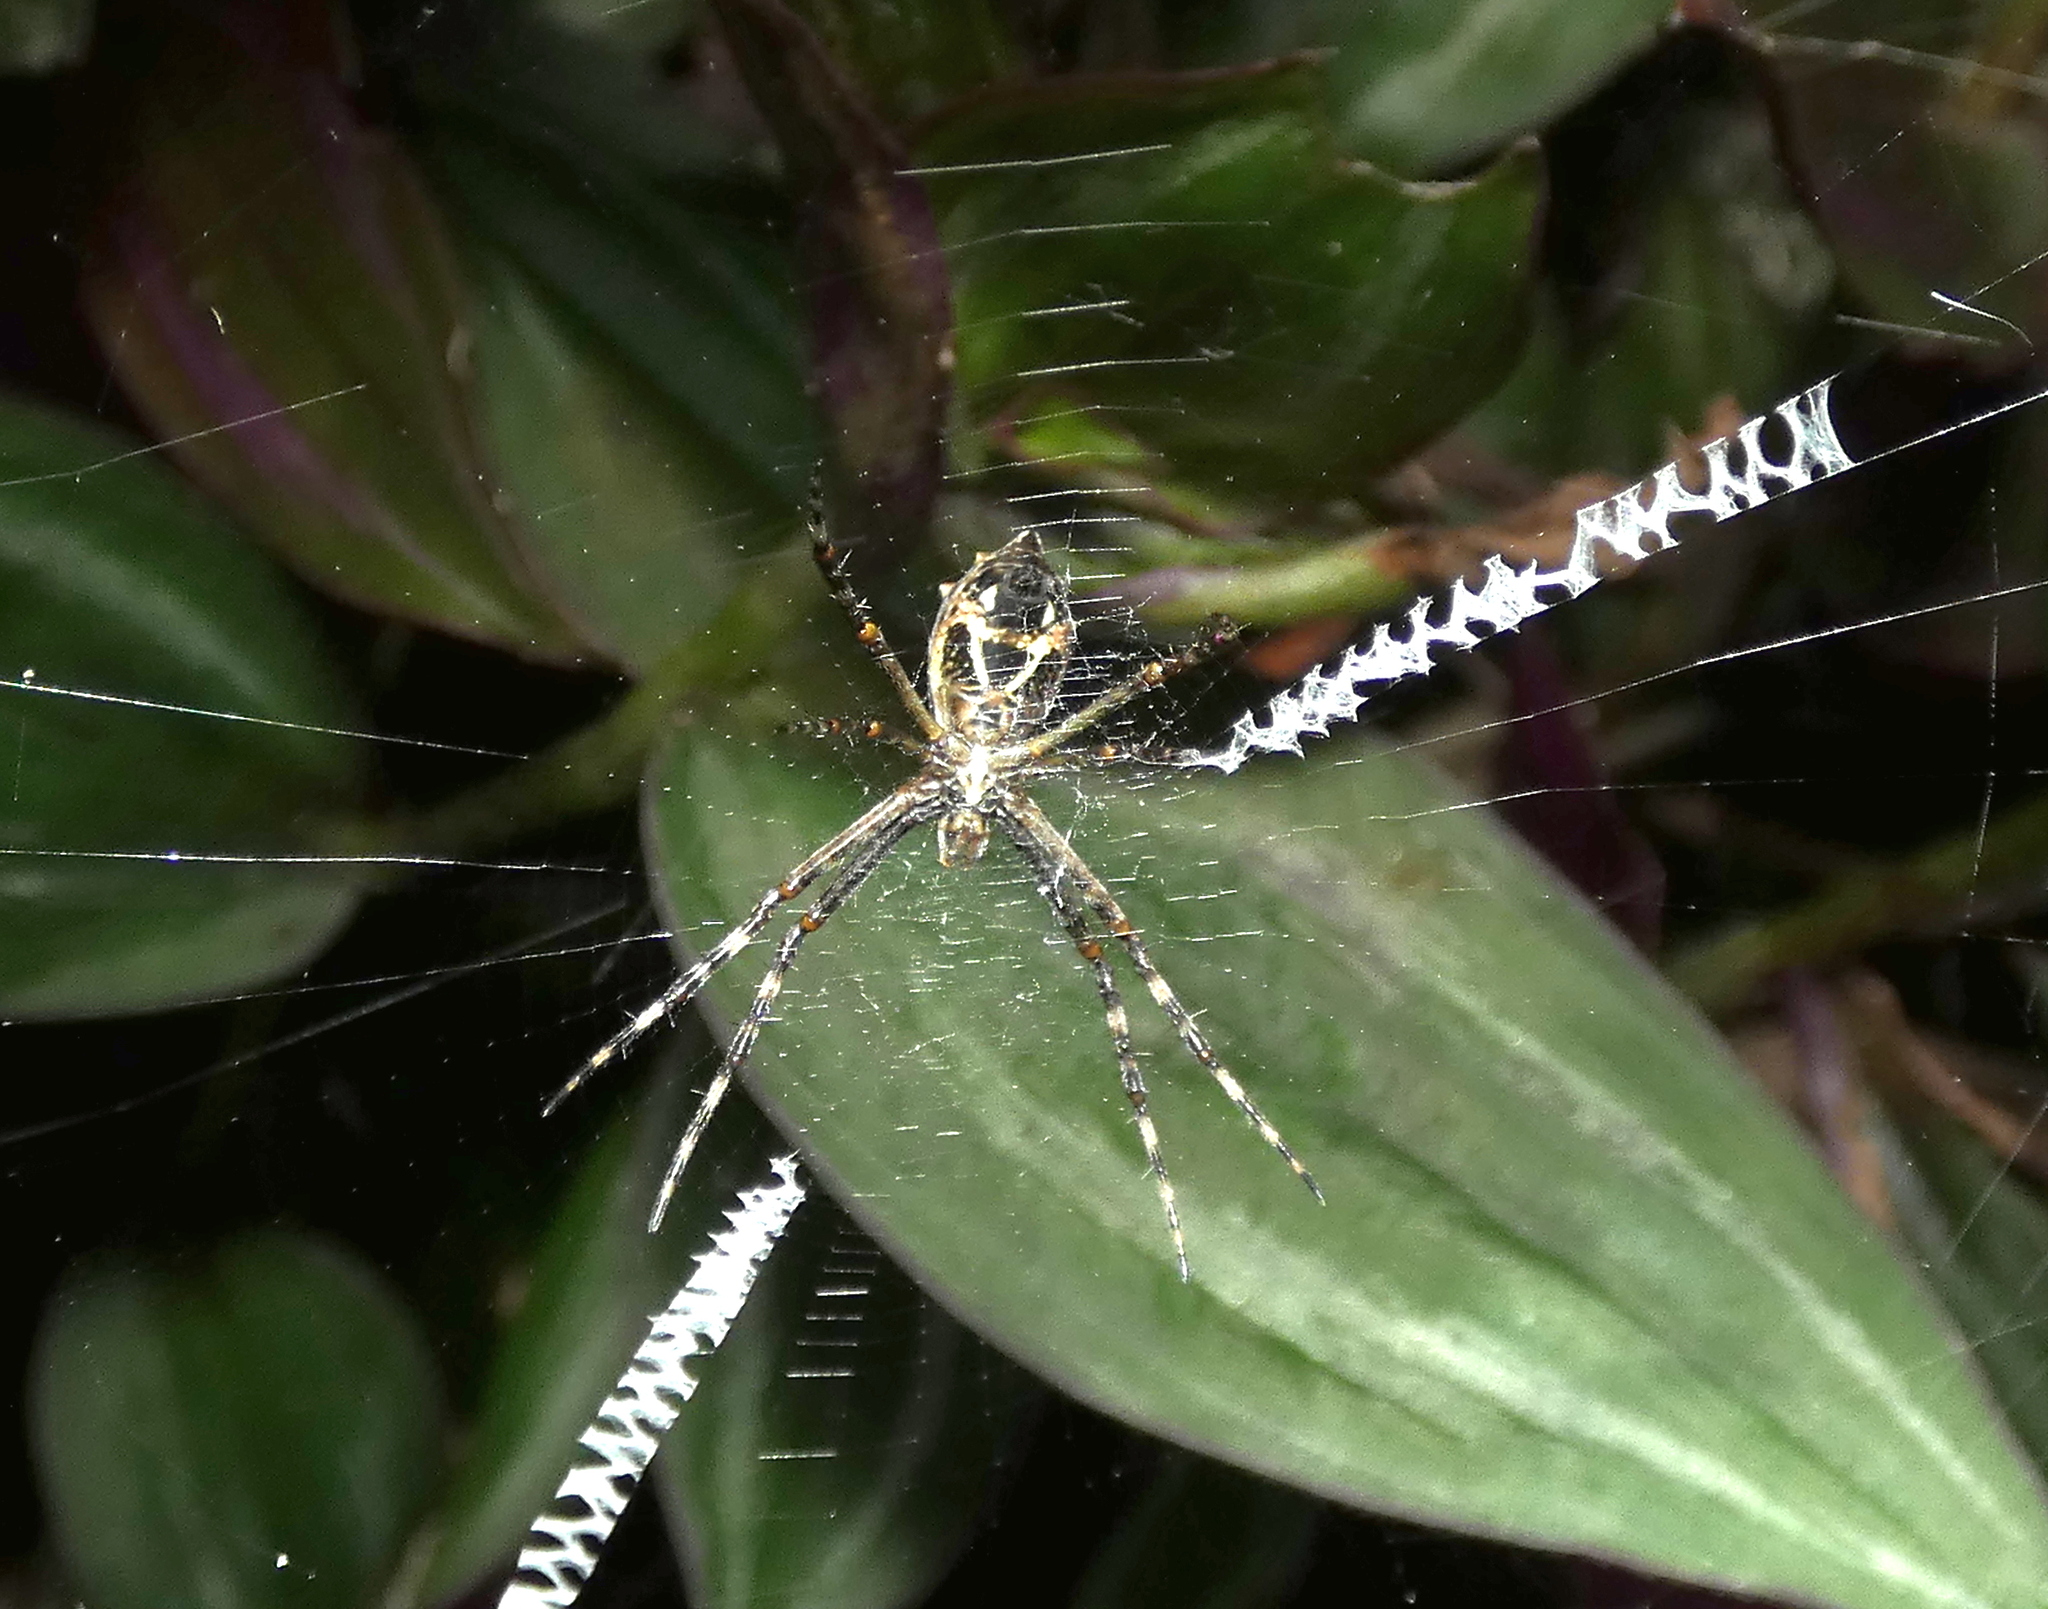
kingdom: Animalia
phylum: Arthropoda
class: Arachnida
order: Araneae
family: Araneidae
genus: Argiope
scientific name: Argiope argentata
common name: Orb weavers
